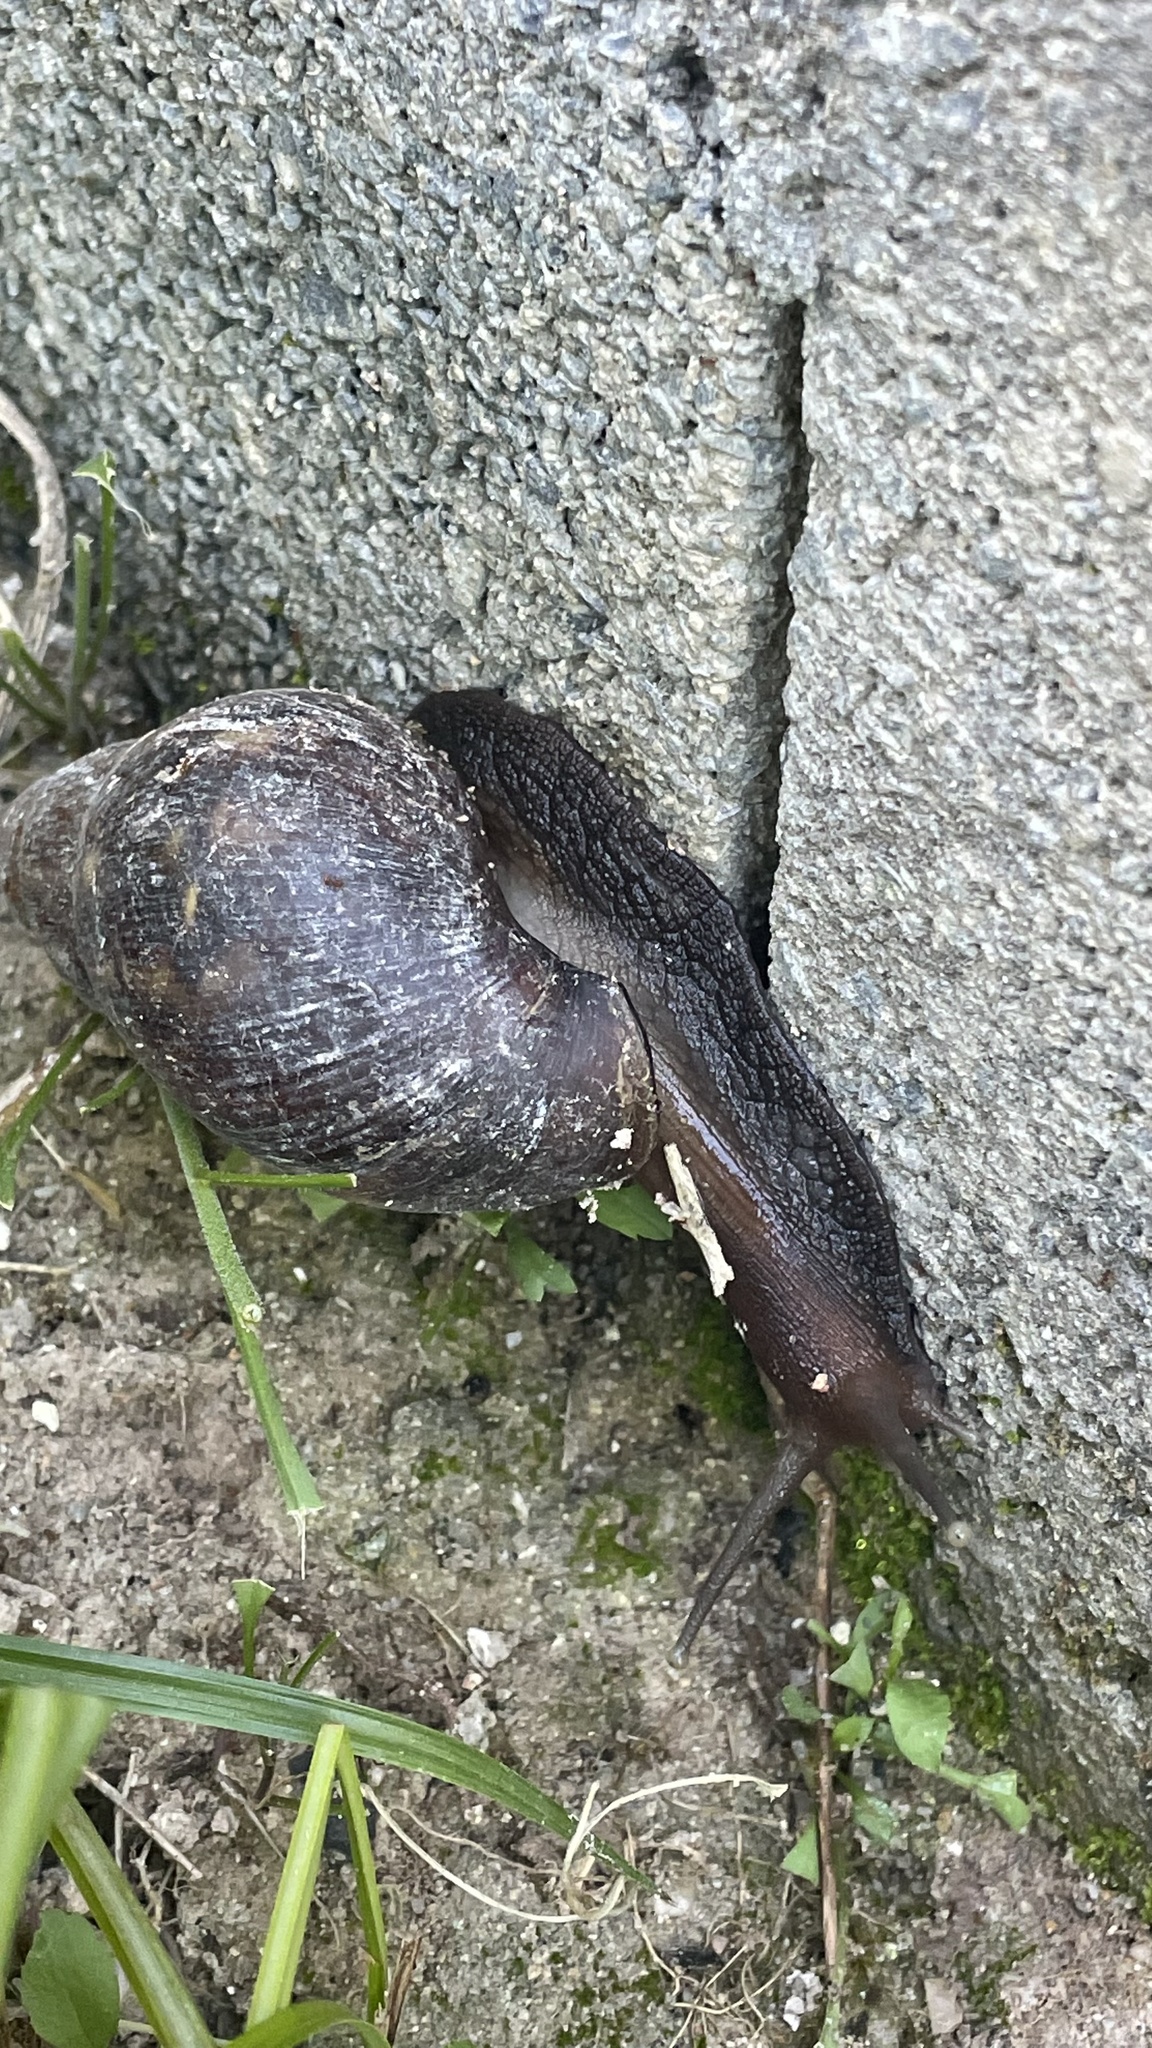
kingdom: Animalia
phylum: Mollusca
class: Gastropoda
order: Stylommatophora
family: Achatinidae
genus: Lissachatina
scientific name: Lissachatina fulica
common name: Giant african snail
